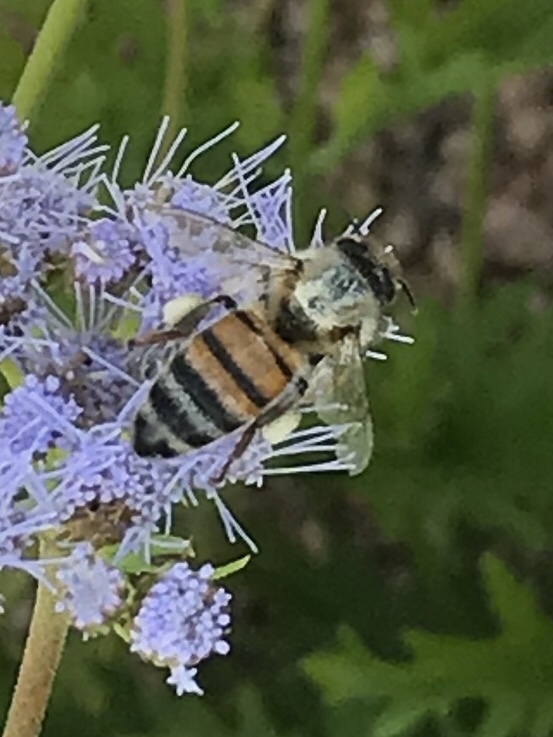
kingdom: Animalia
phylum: Arthropoda
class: Insecta
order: Hymenoptera
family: Apidae
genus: Apis
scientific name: Apis mellifera
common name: Honey bee
